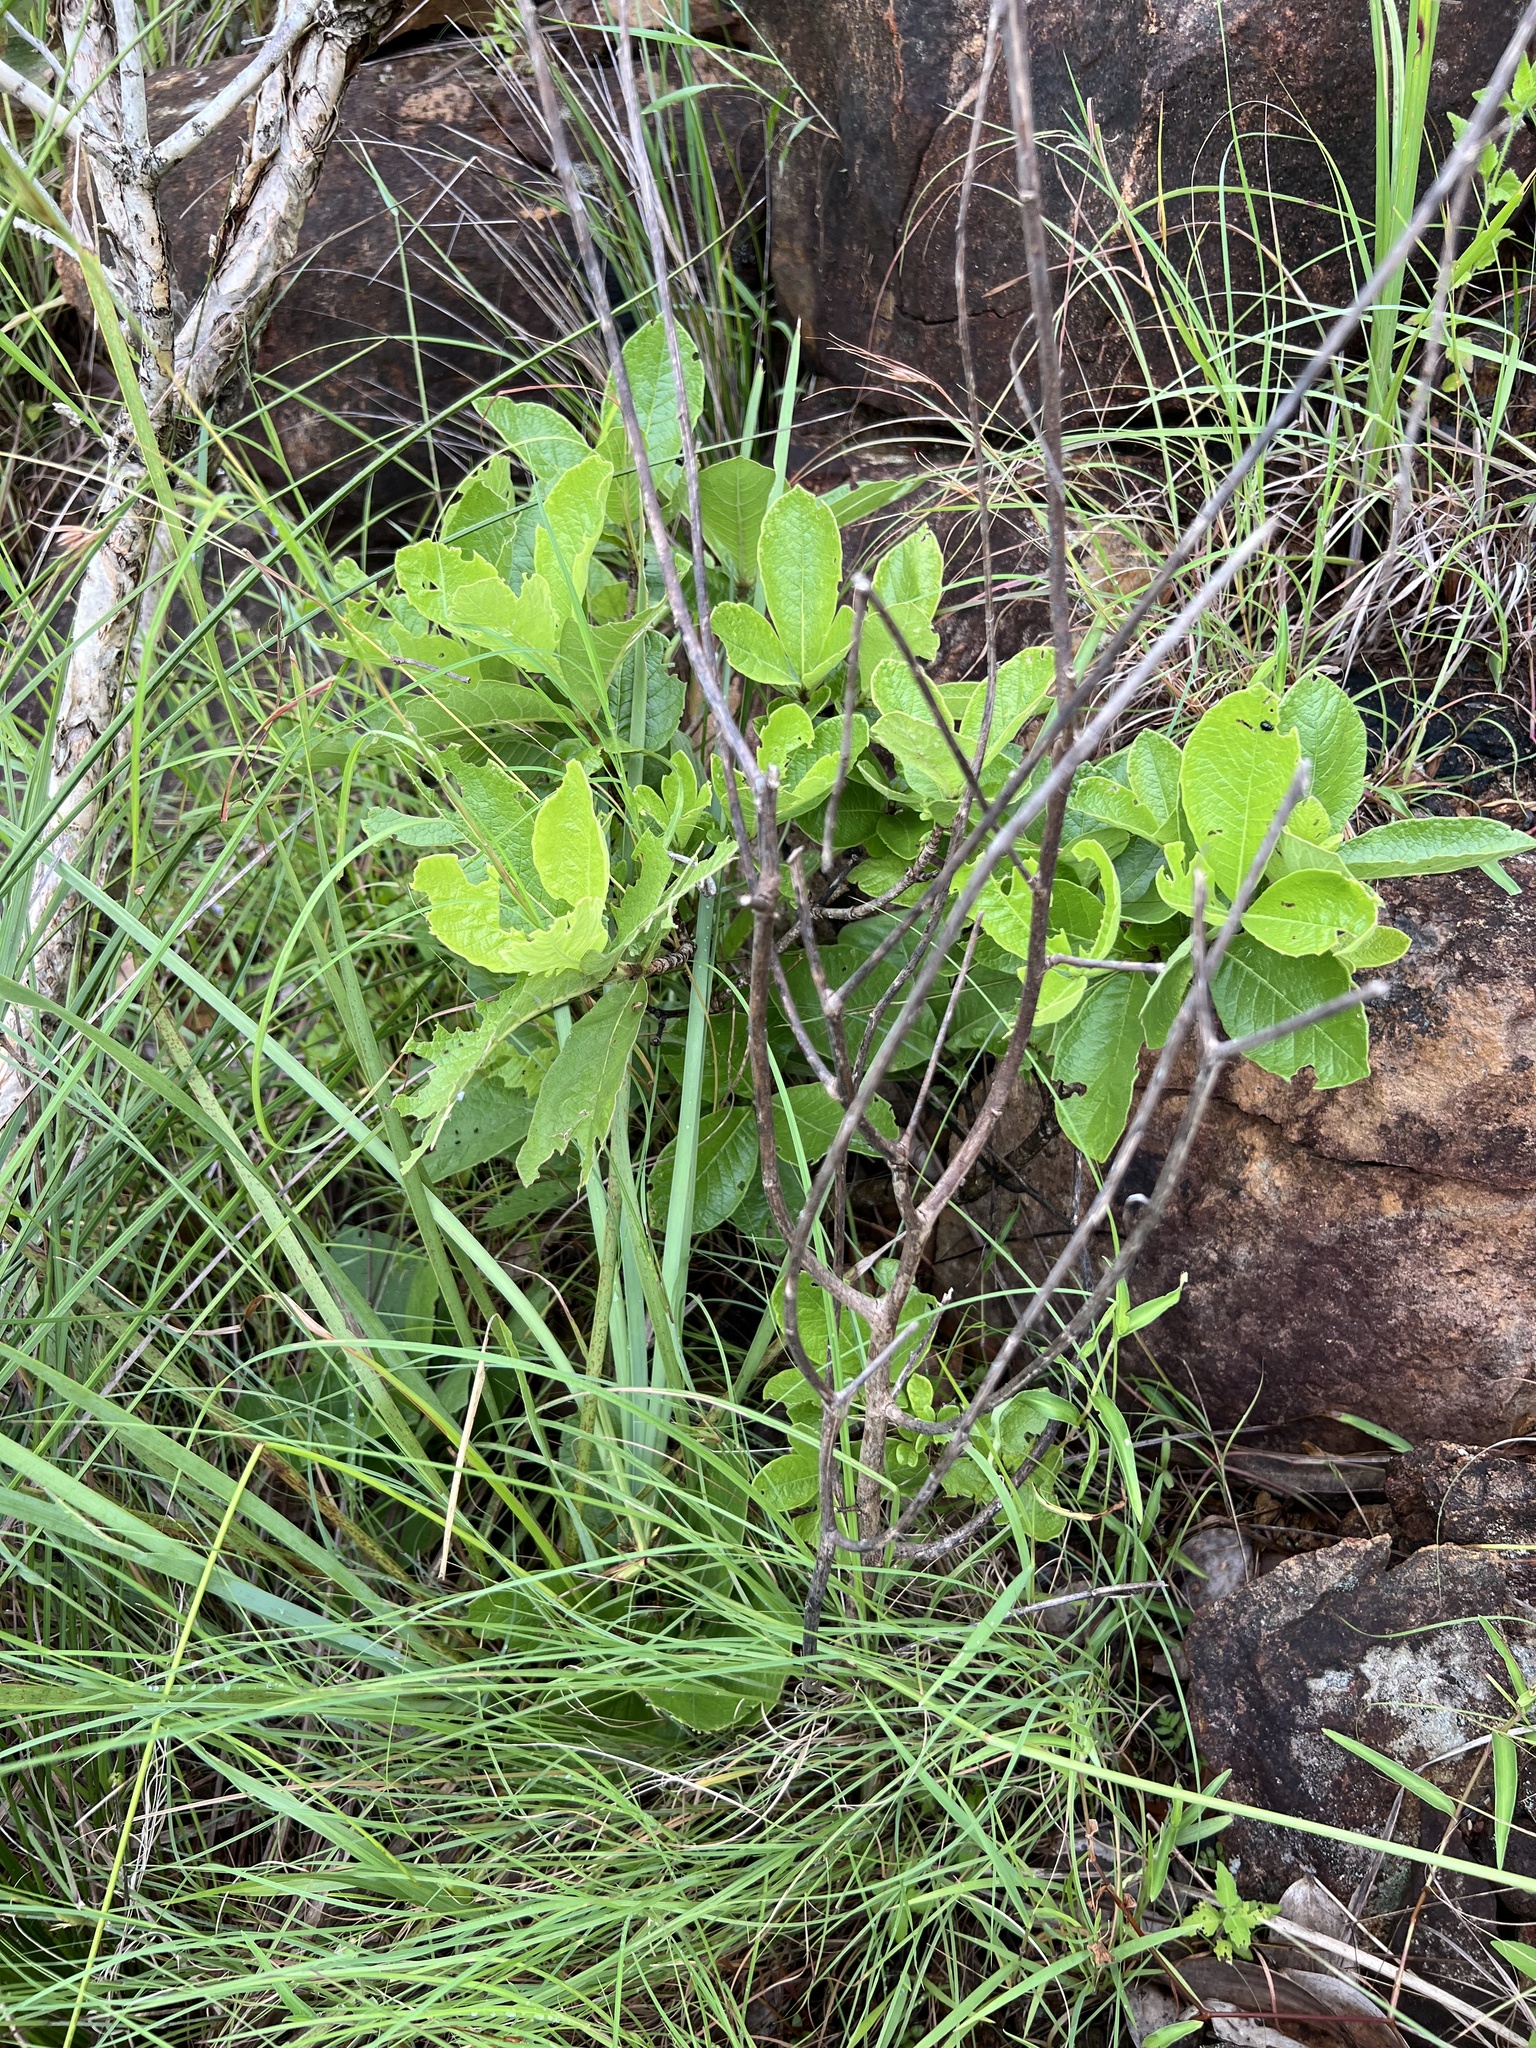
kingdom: Plantae
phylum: Tracheophyta
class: Magnoliopsida
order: Gentianales
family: Rubiaceae
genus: Larsenaikia
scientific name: Larsenaikia ochreata
